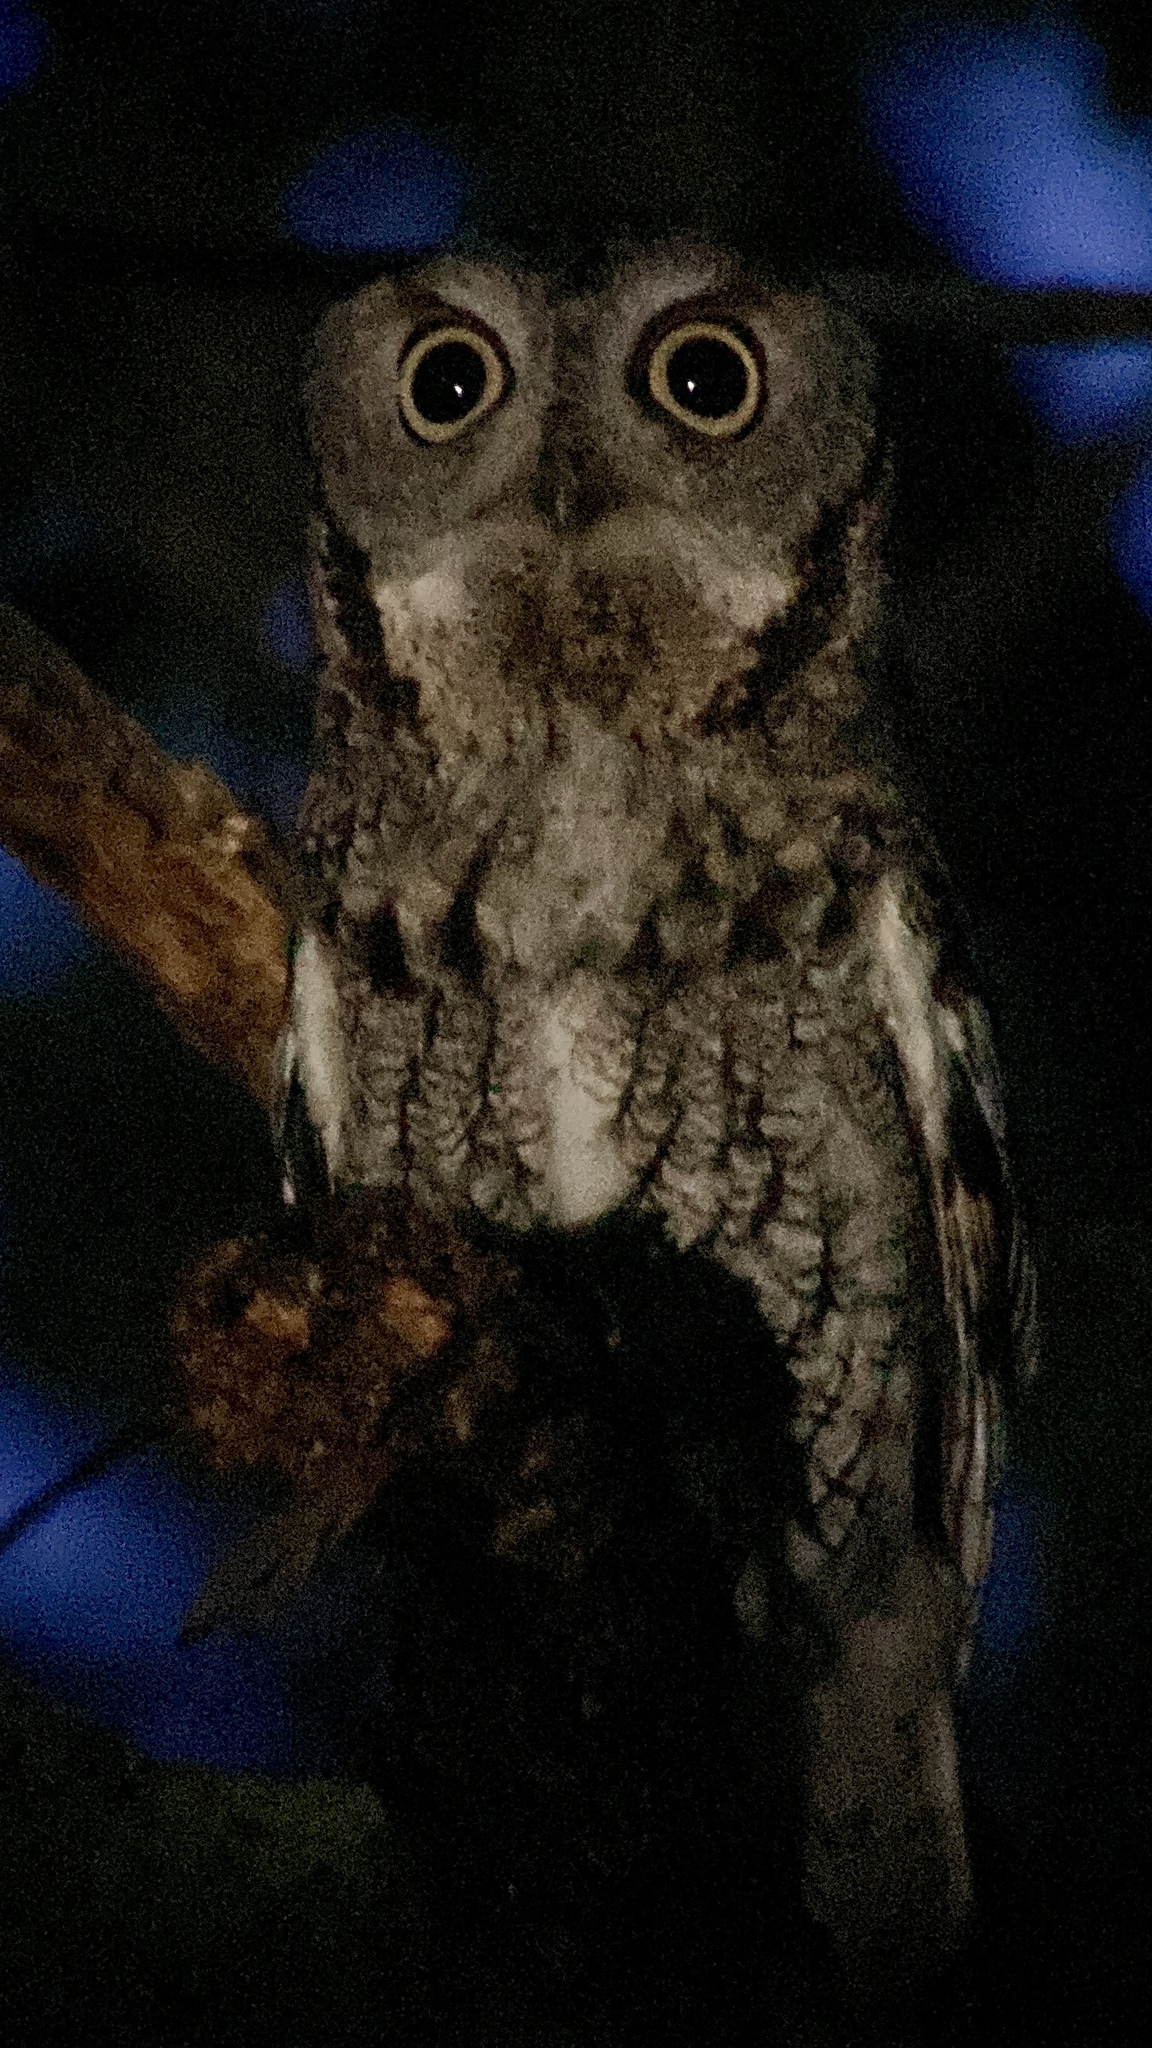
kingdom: Animalia
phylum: Chordata
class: Aves
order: Strigiformes
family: Strigidae
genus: Megascops
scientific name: Megascops asio
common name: Eastern screech-owl
